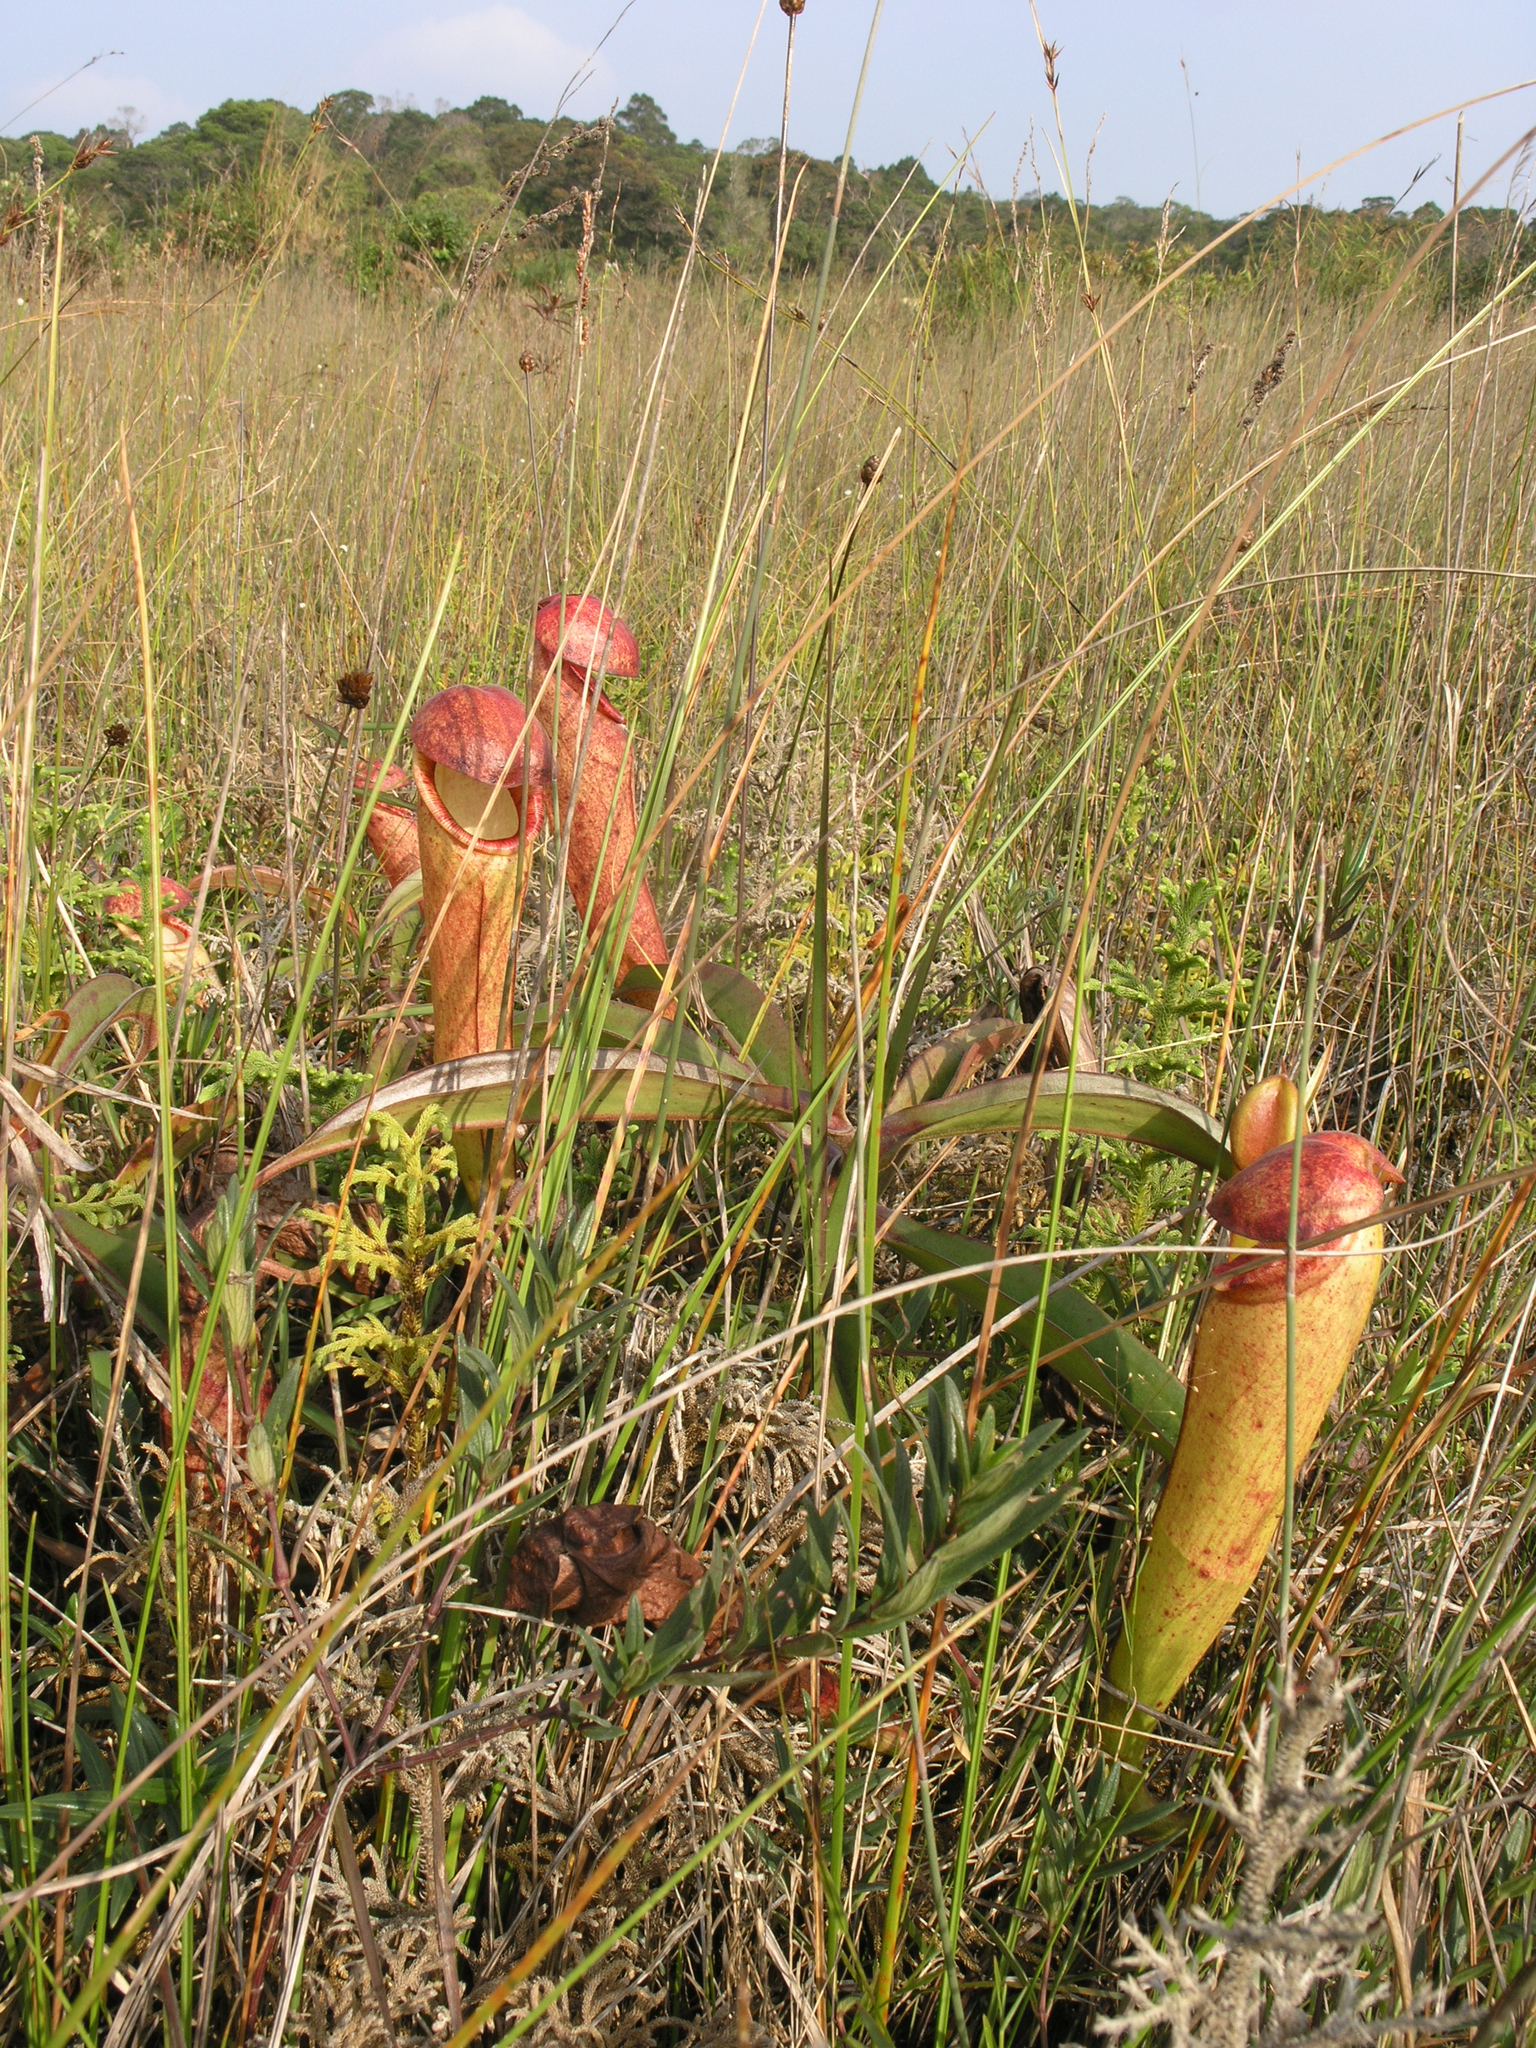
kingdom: Plantae
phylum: Tracheophyta
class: Magnoliopsida
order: Caryophyllales
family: Nepenthaceae
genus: Nepenthes
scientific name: Nepenthes bokorensis
